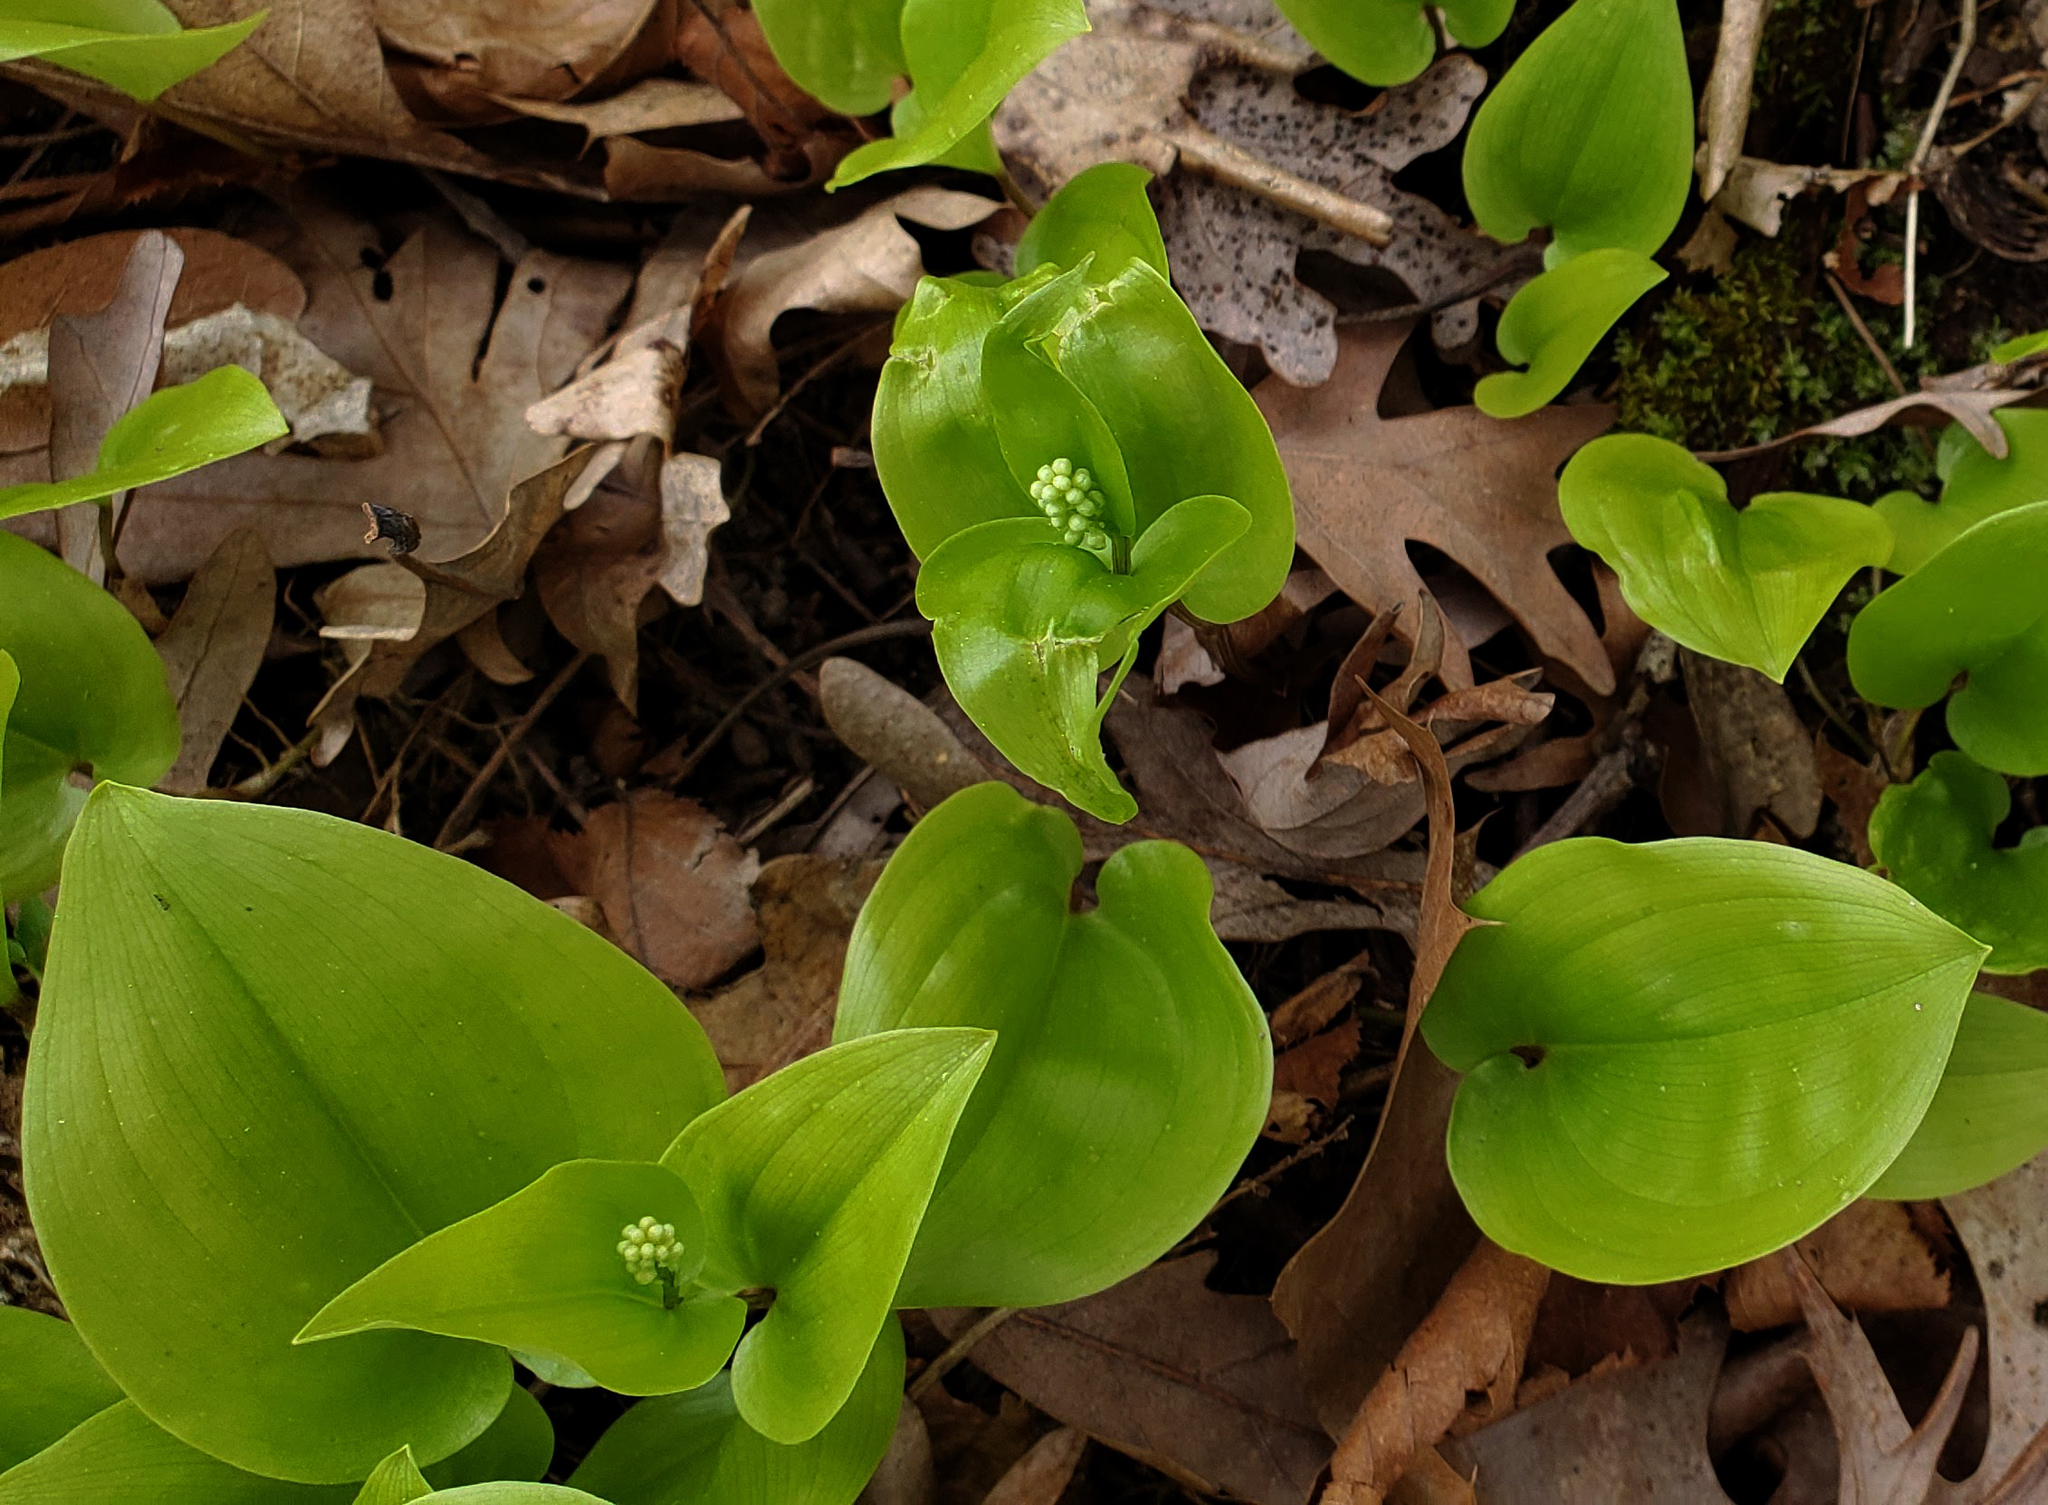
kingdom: Plantae
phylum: Tracheophyta
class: Liliopsida
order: Asparagales
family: Asparagaceae
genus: Maianthemum
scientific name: Maianthemum canadense
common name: False lily-of-the-valley
